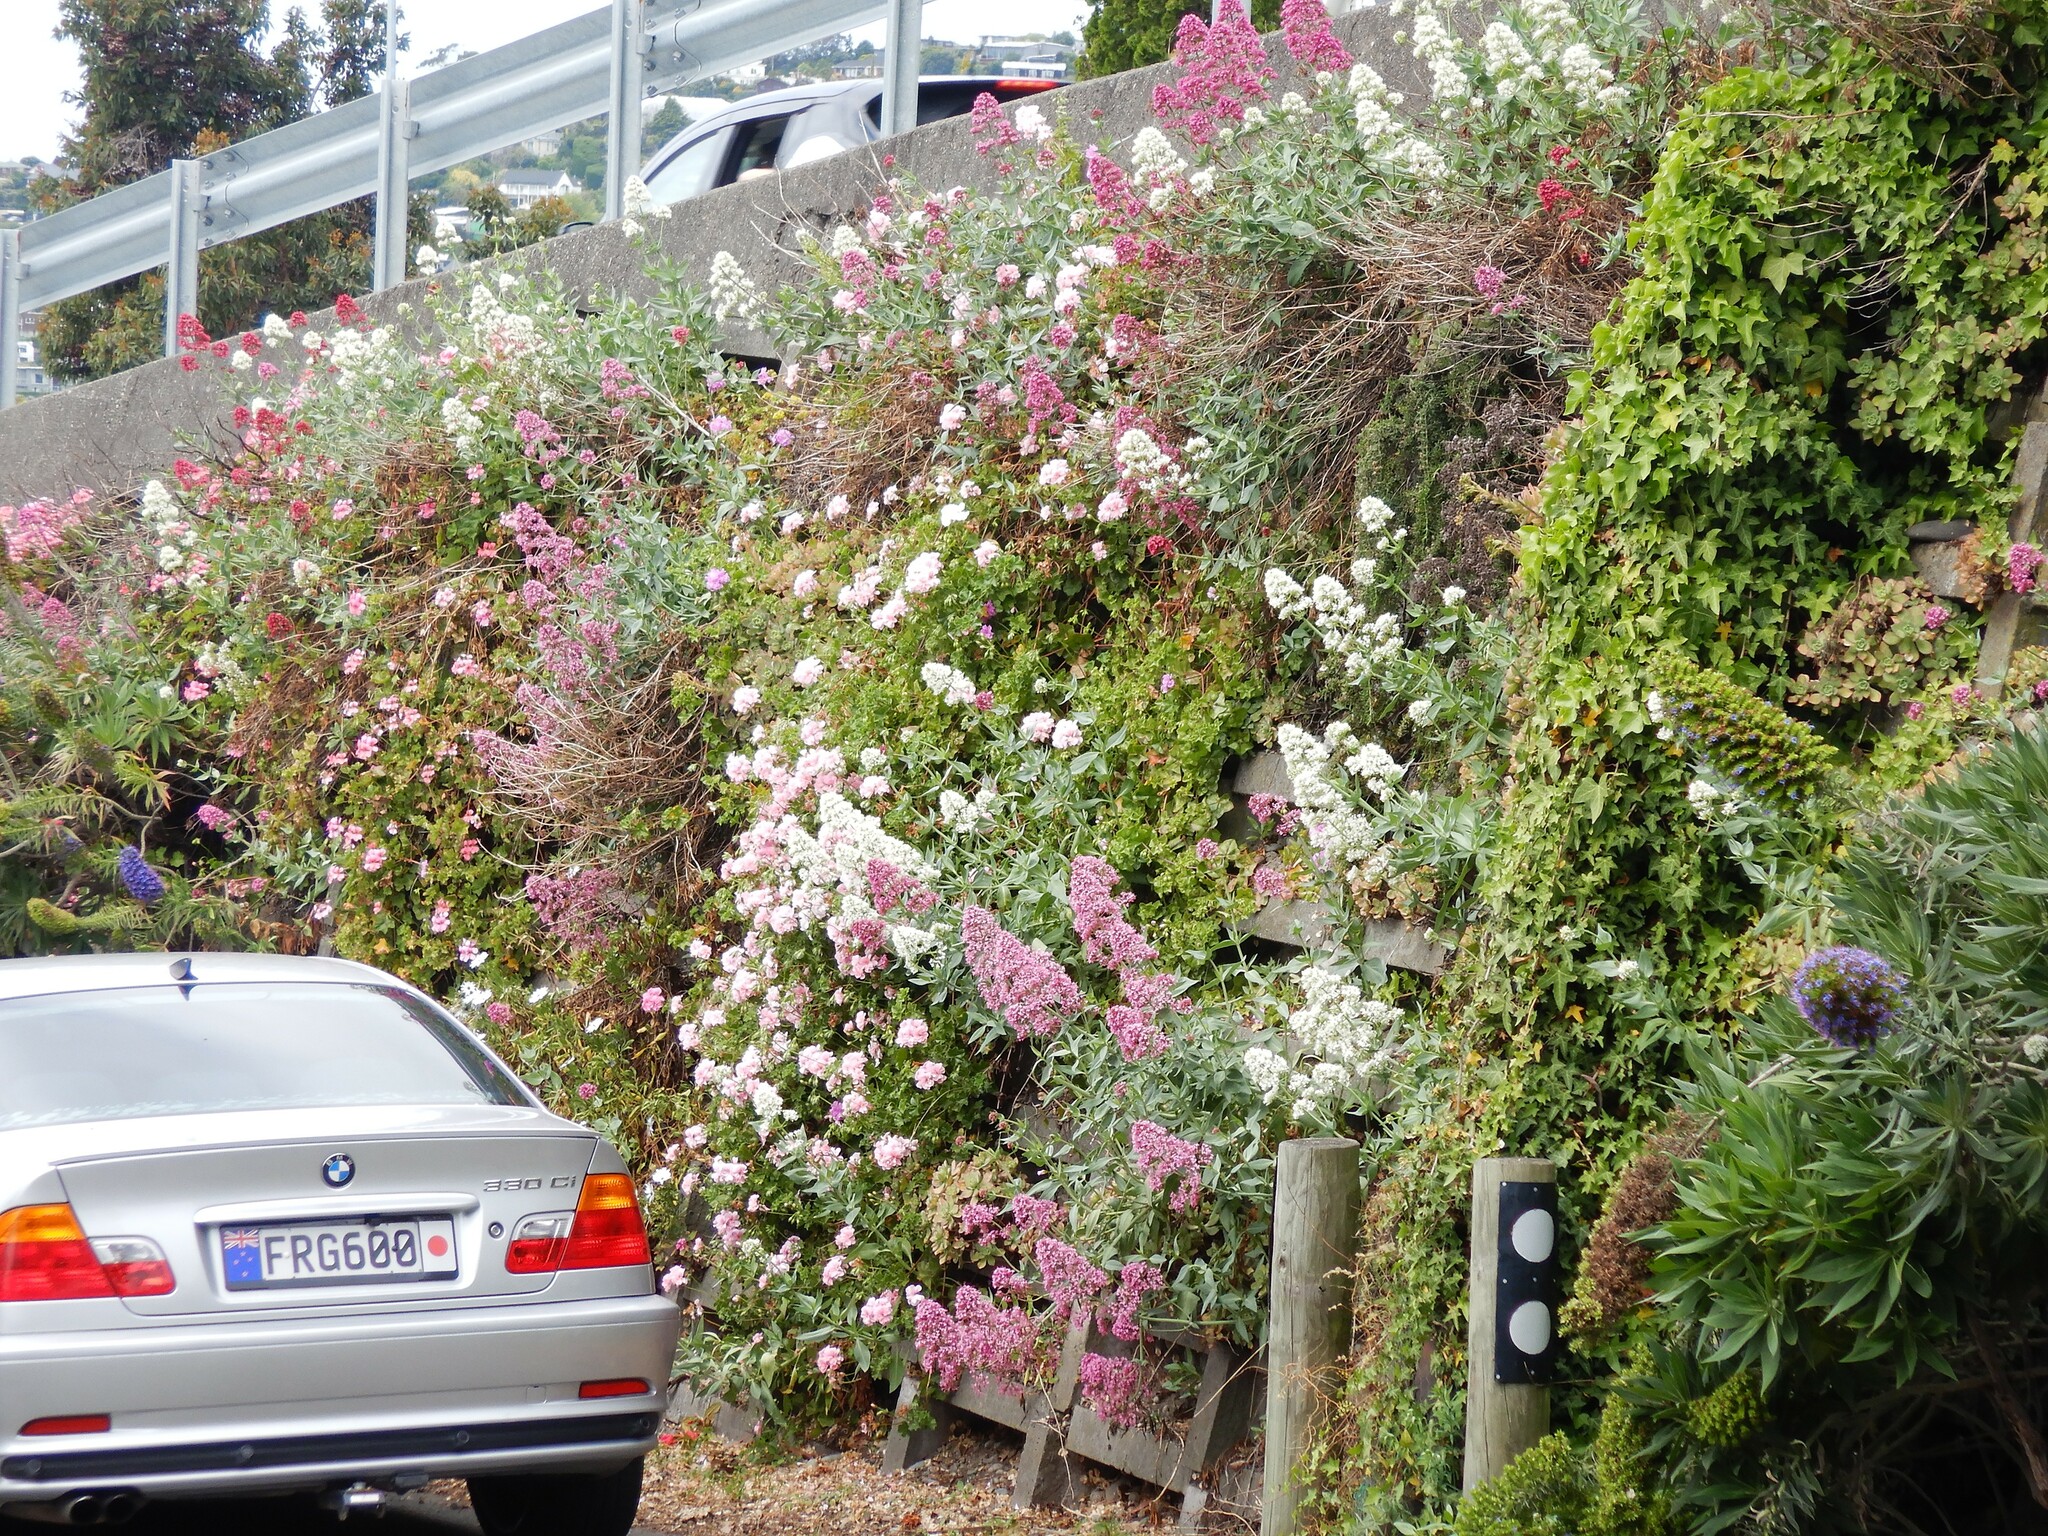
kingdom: Plantae
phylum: Tracheophyta
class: Magnoliopsida
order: Dipsacales
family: Caprifoliaceae
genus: Centranthus
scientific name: Centranthus ruber
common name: Red valerian
